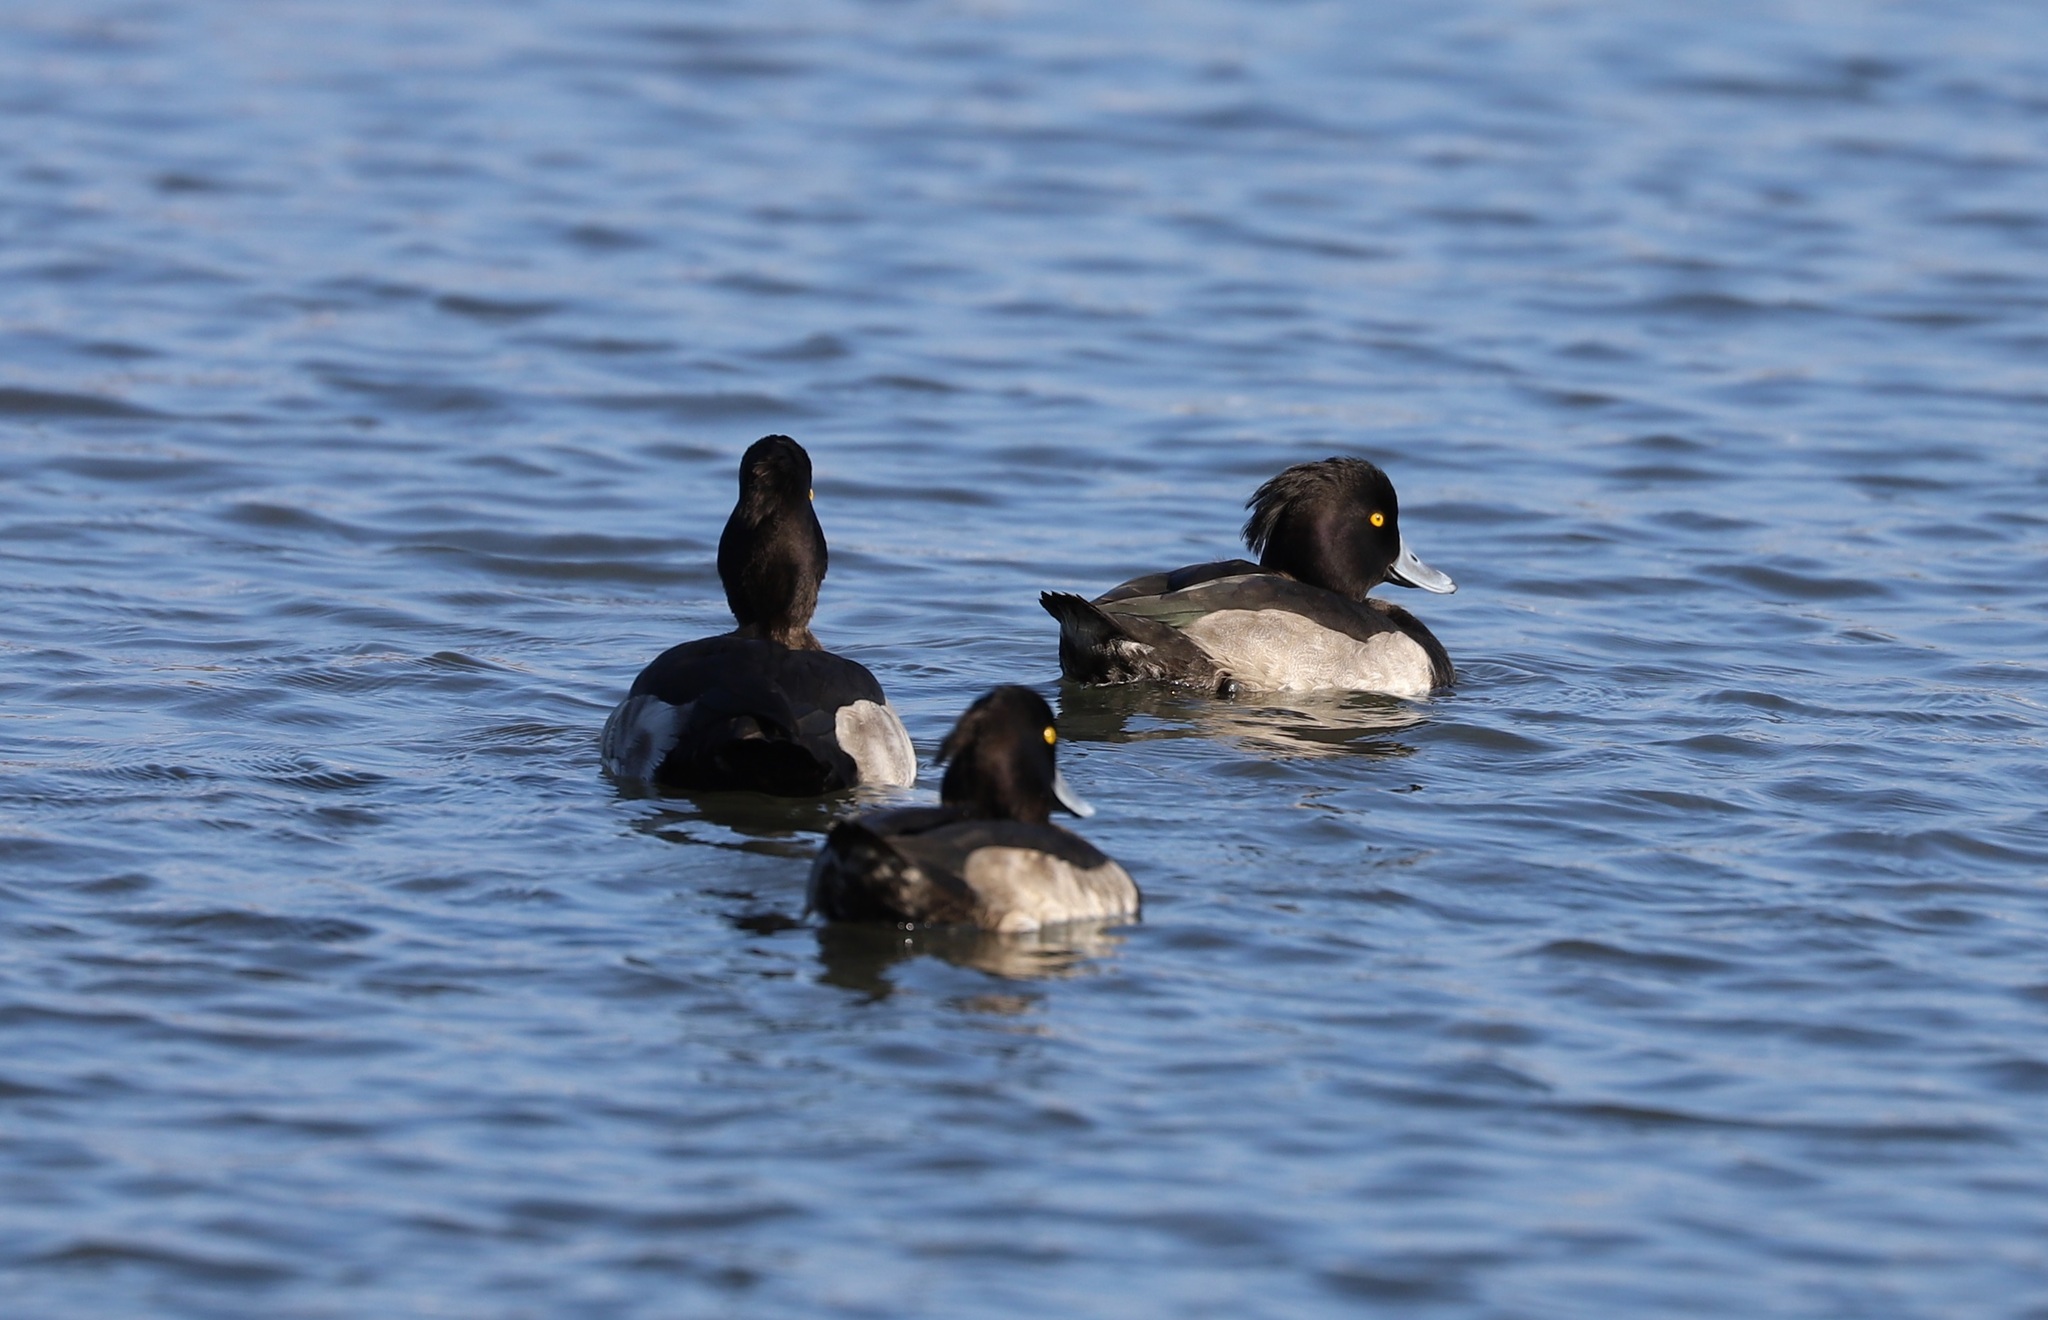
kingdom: Animalia
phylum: Chordata
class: Aves
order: Anseriformes
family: Anatidae
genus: Aythya
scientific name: Aythya fuligula
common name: Tufted duck
